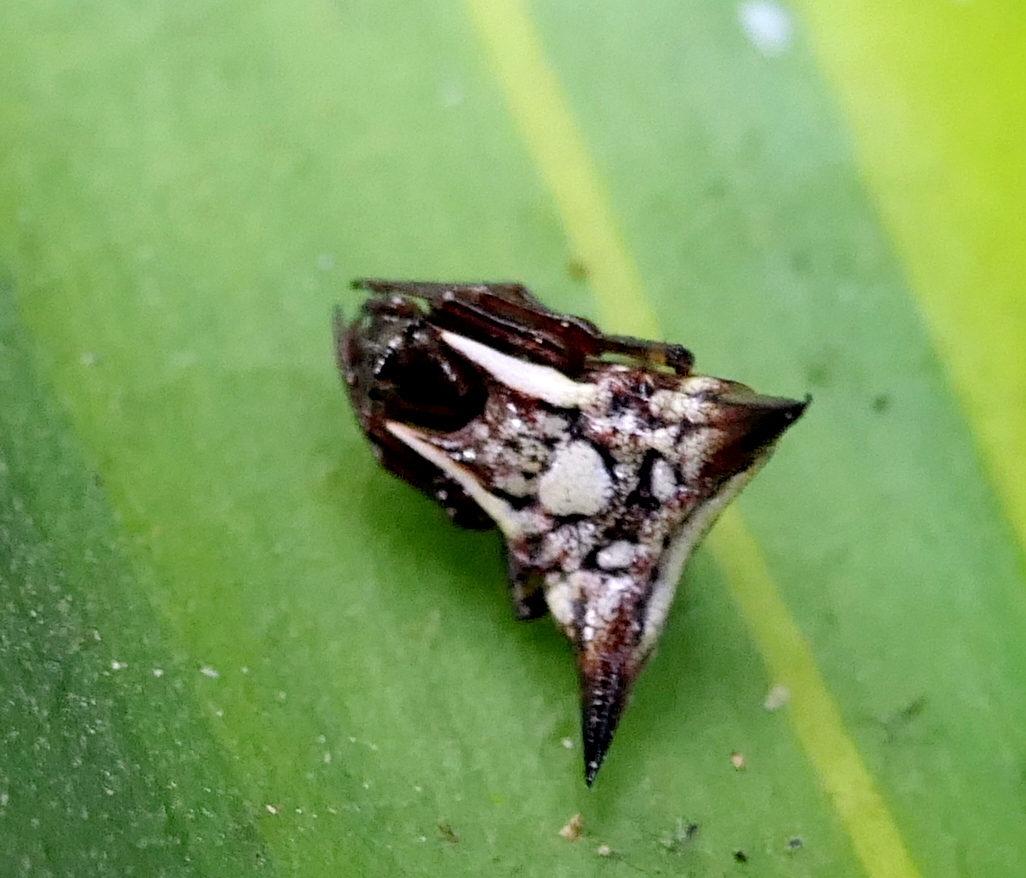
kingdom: Animalia
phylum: Arthropoda
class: Arachnida
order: Araneae
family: Araneidae
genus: Micrathena
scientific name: Micrathena evansi
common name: Orb weavers
